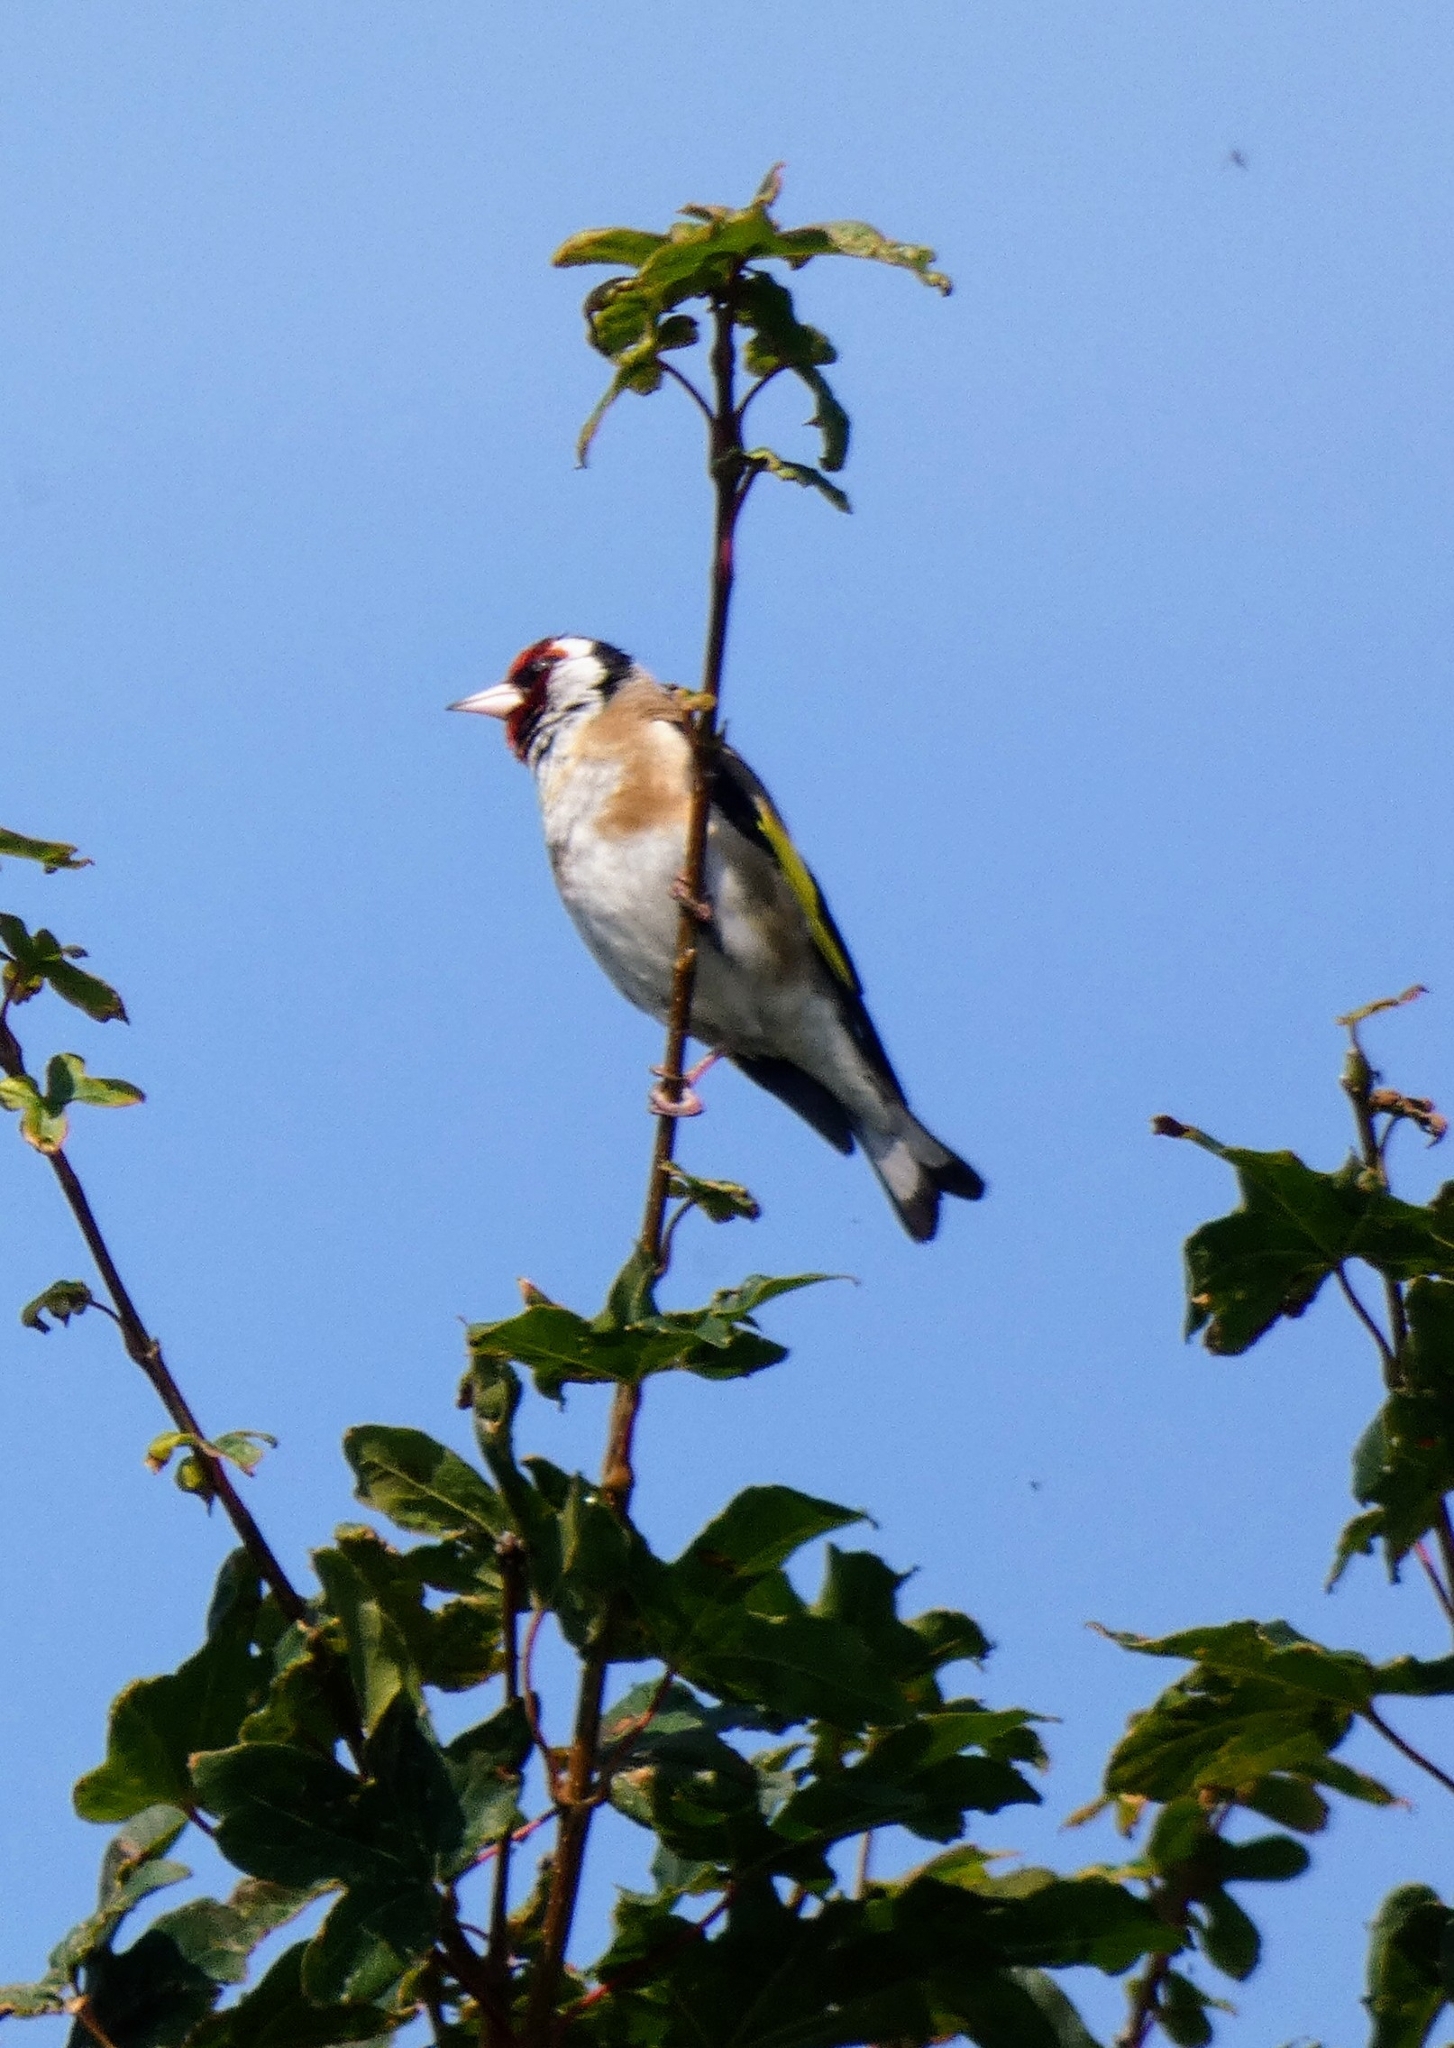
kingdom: Animalia
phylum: Chordata
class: Aves
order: Passeriformes
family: Fringillidae
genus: Carduelis
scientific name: Carduelis carduelis
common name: European goldfinch
